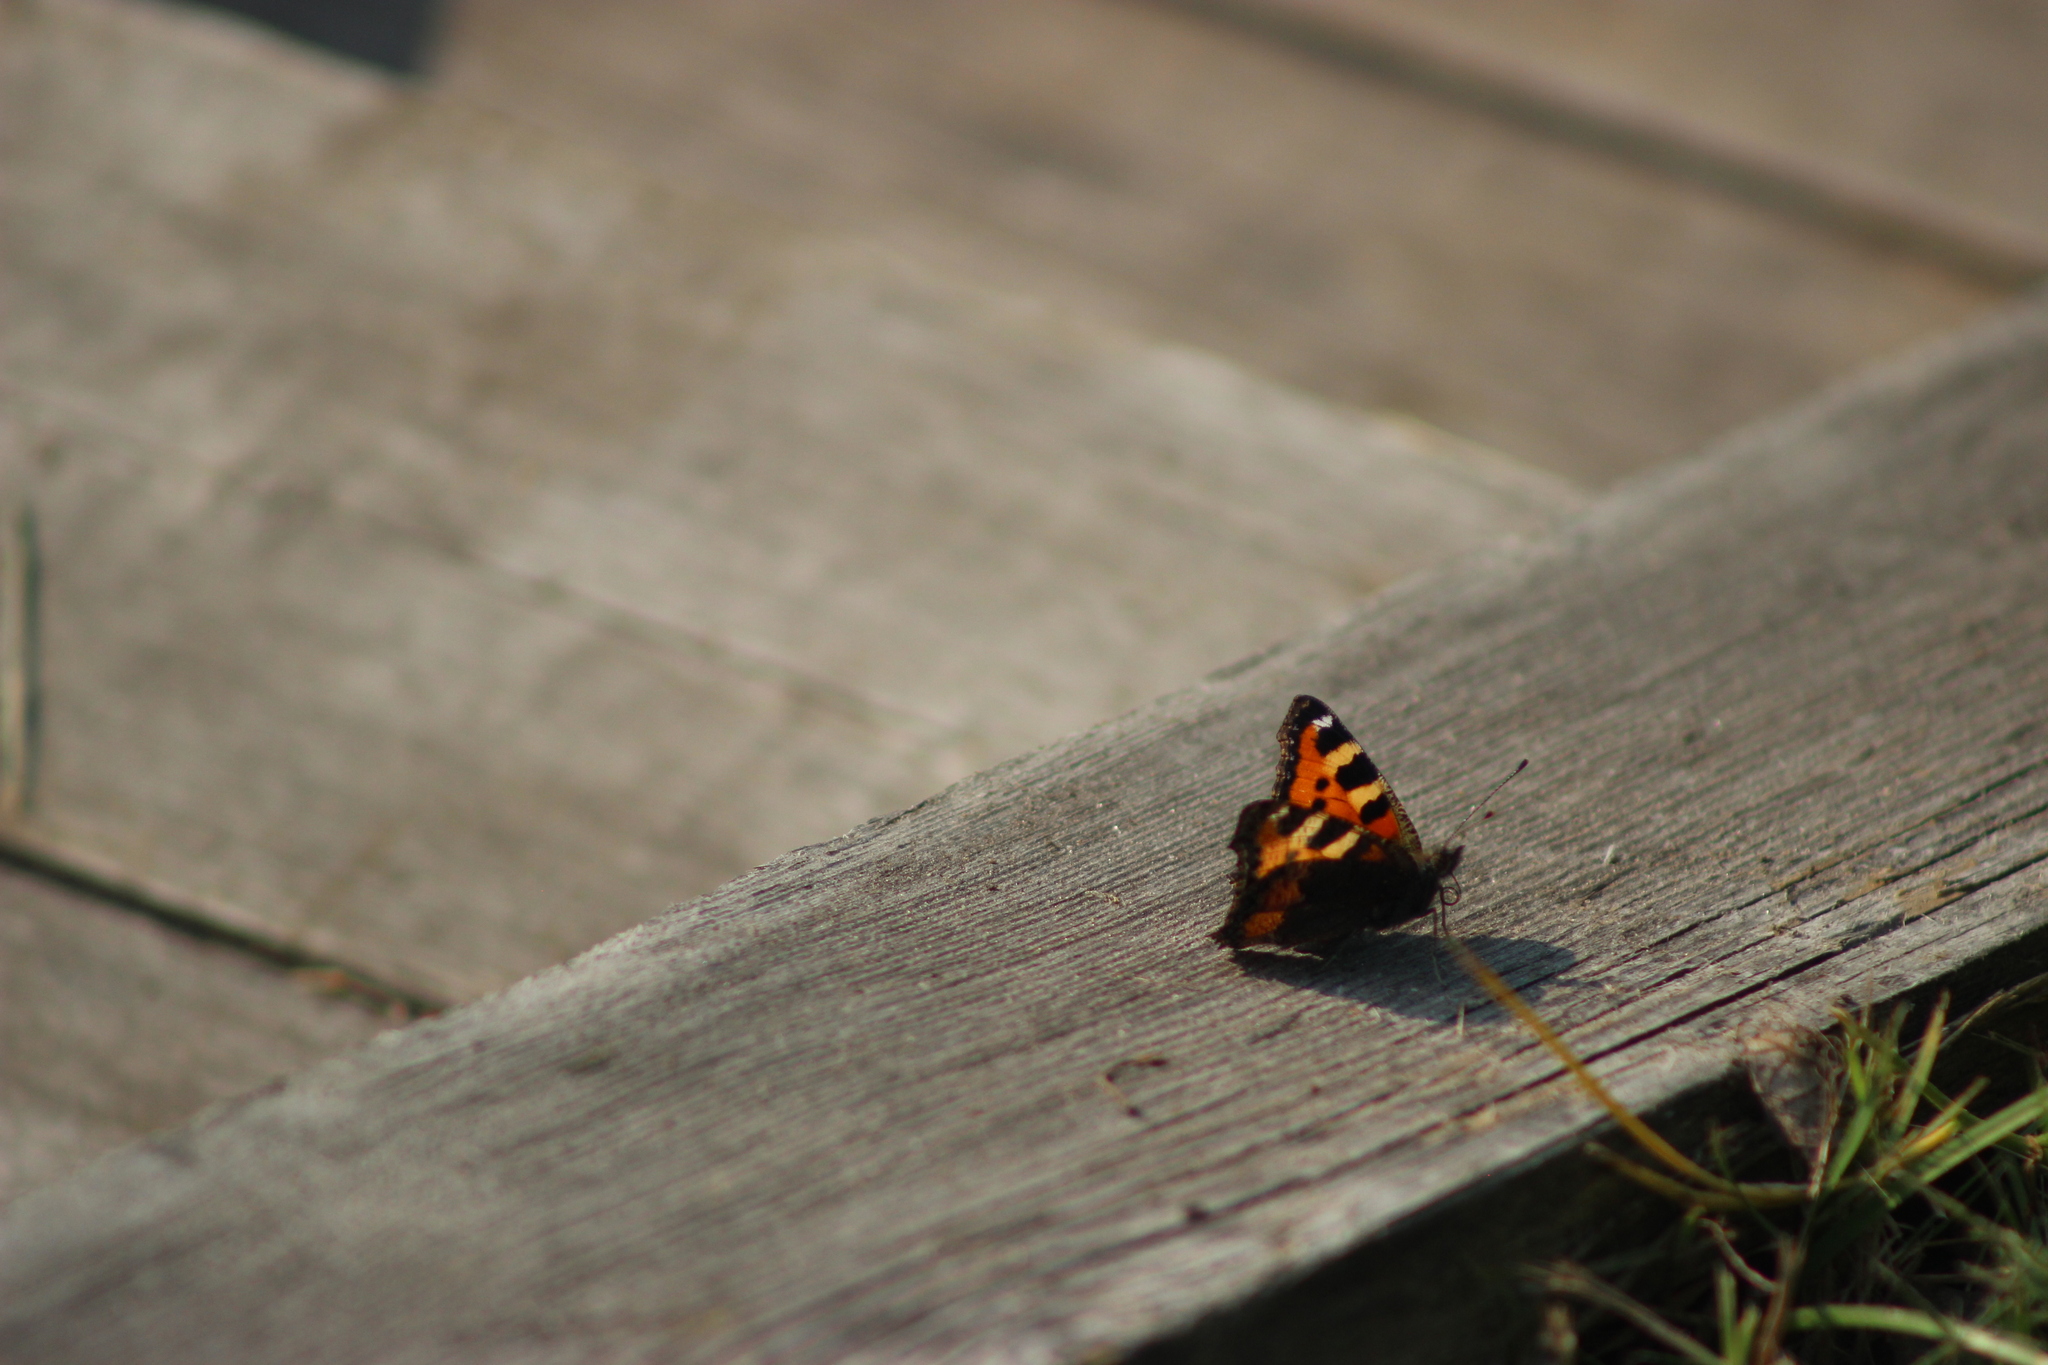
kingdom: Animalia
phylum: Arthropoda
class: Insecta
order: Lepidoptera
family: Nymphalidae
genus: Aglais
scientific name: Aglais urticae
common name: Small tortoiseshell
